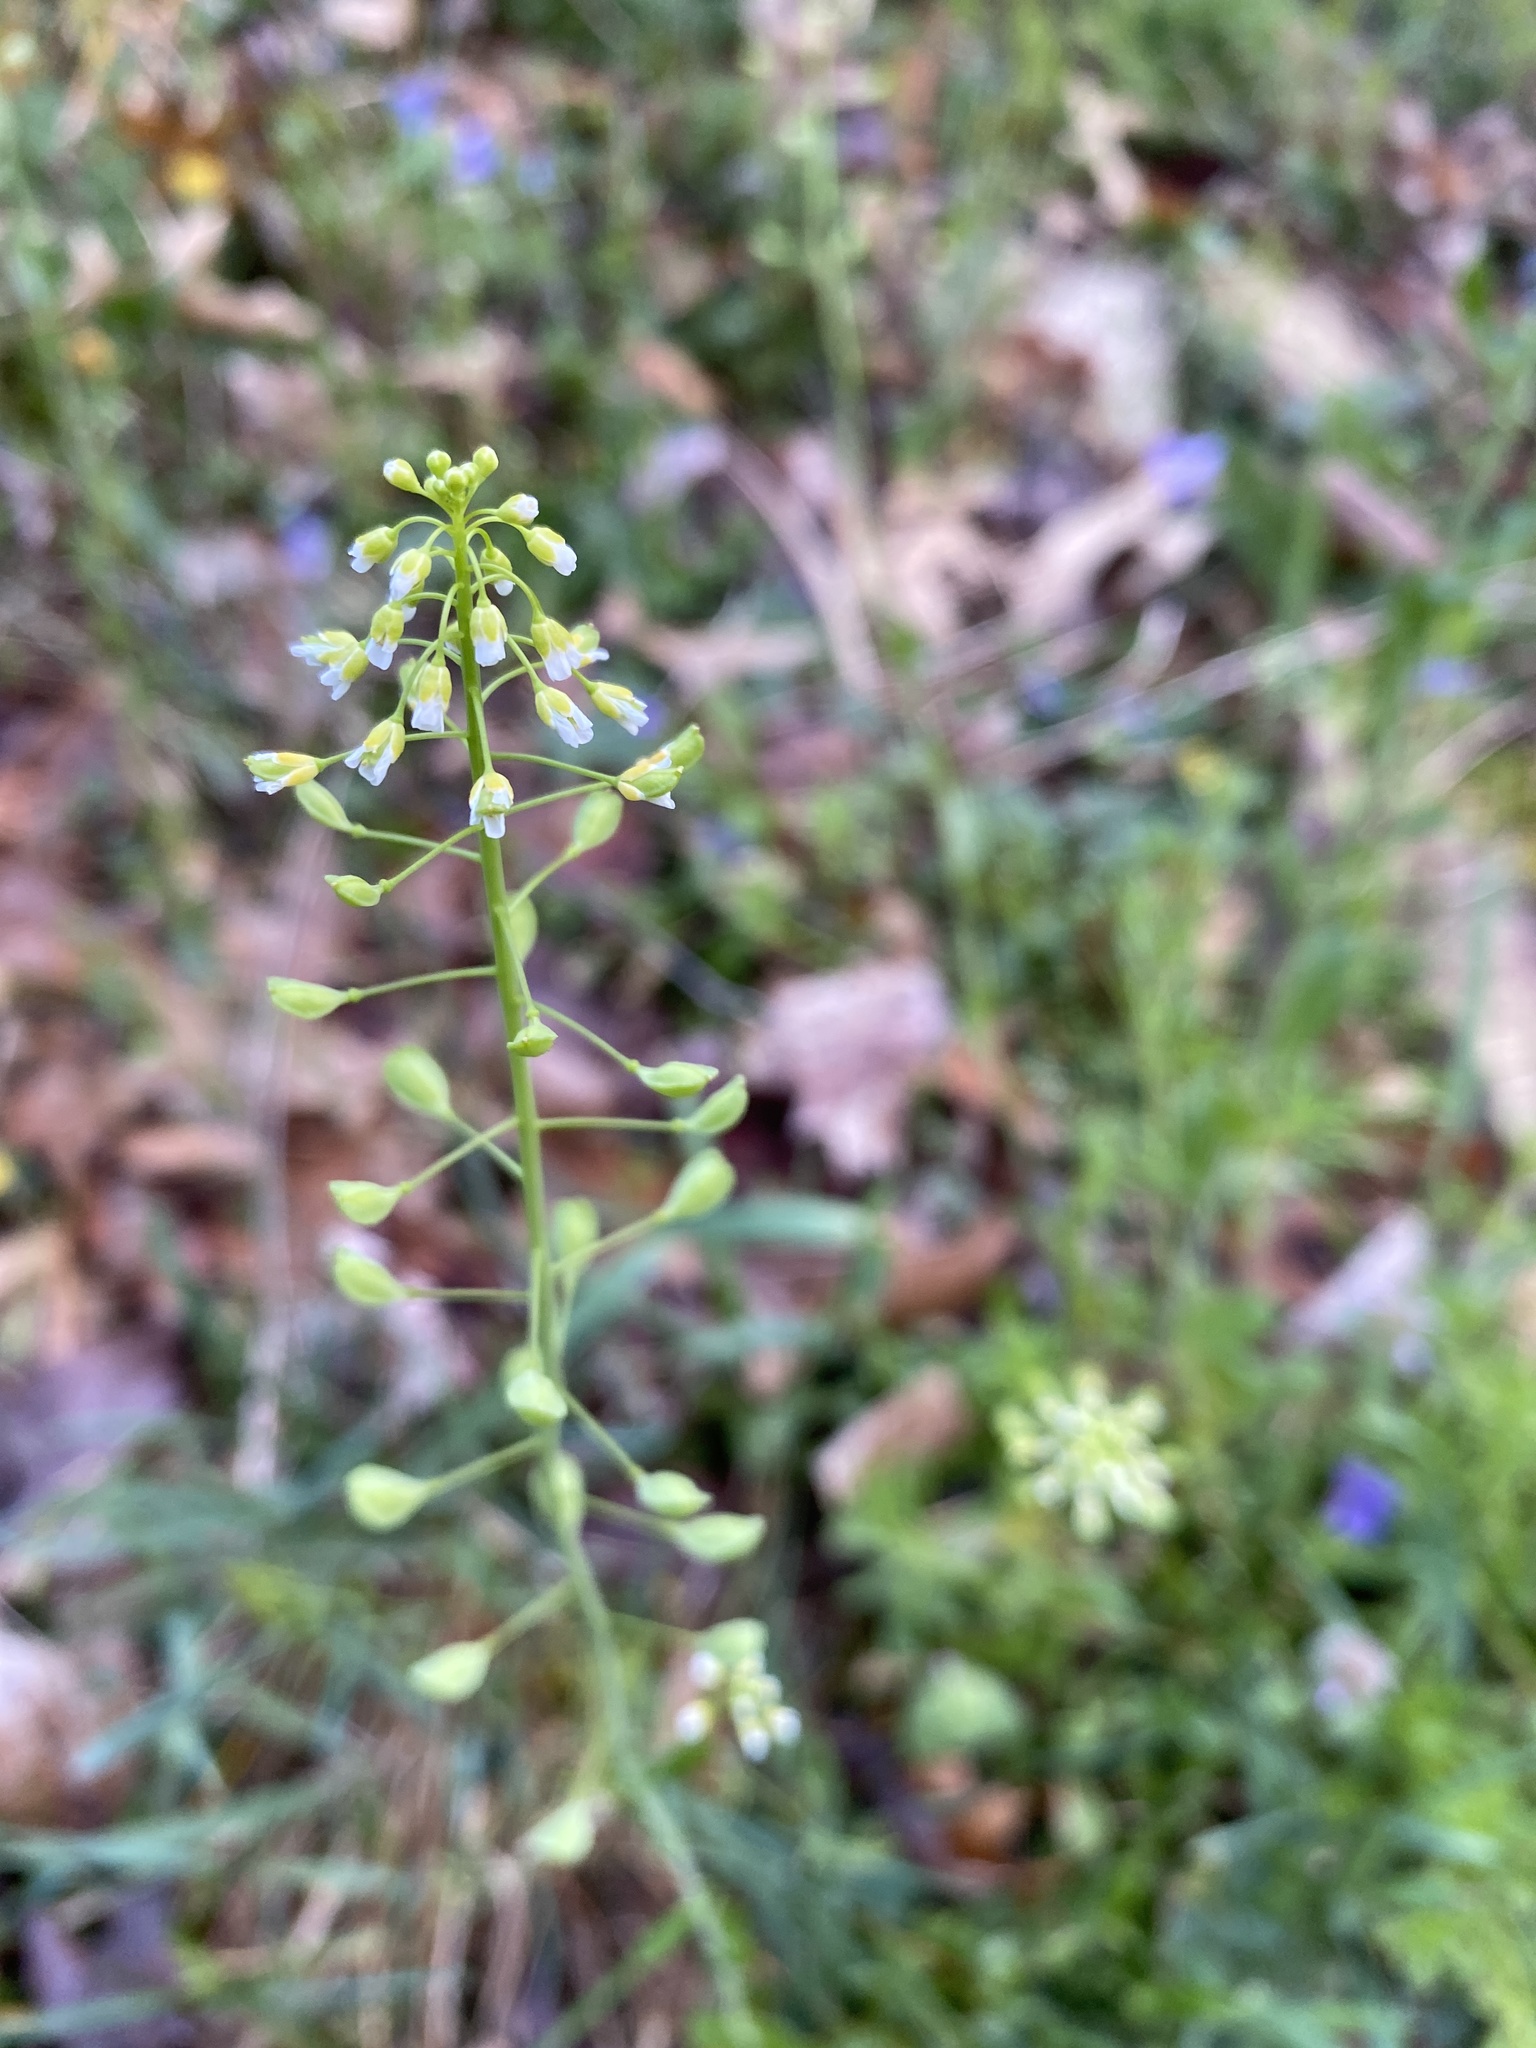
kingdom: Plantae
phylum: Tracheophyta
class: Magnoliopsida
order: Brassicales
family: Brassicaceae
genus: Mummenhoffia
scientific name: Mummenhoffia alliacea
